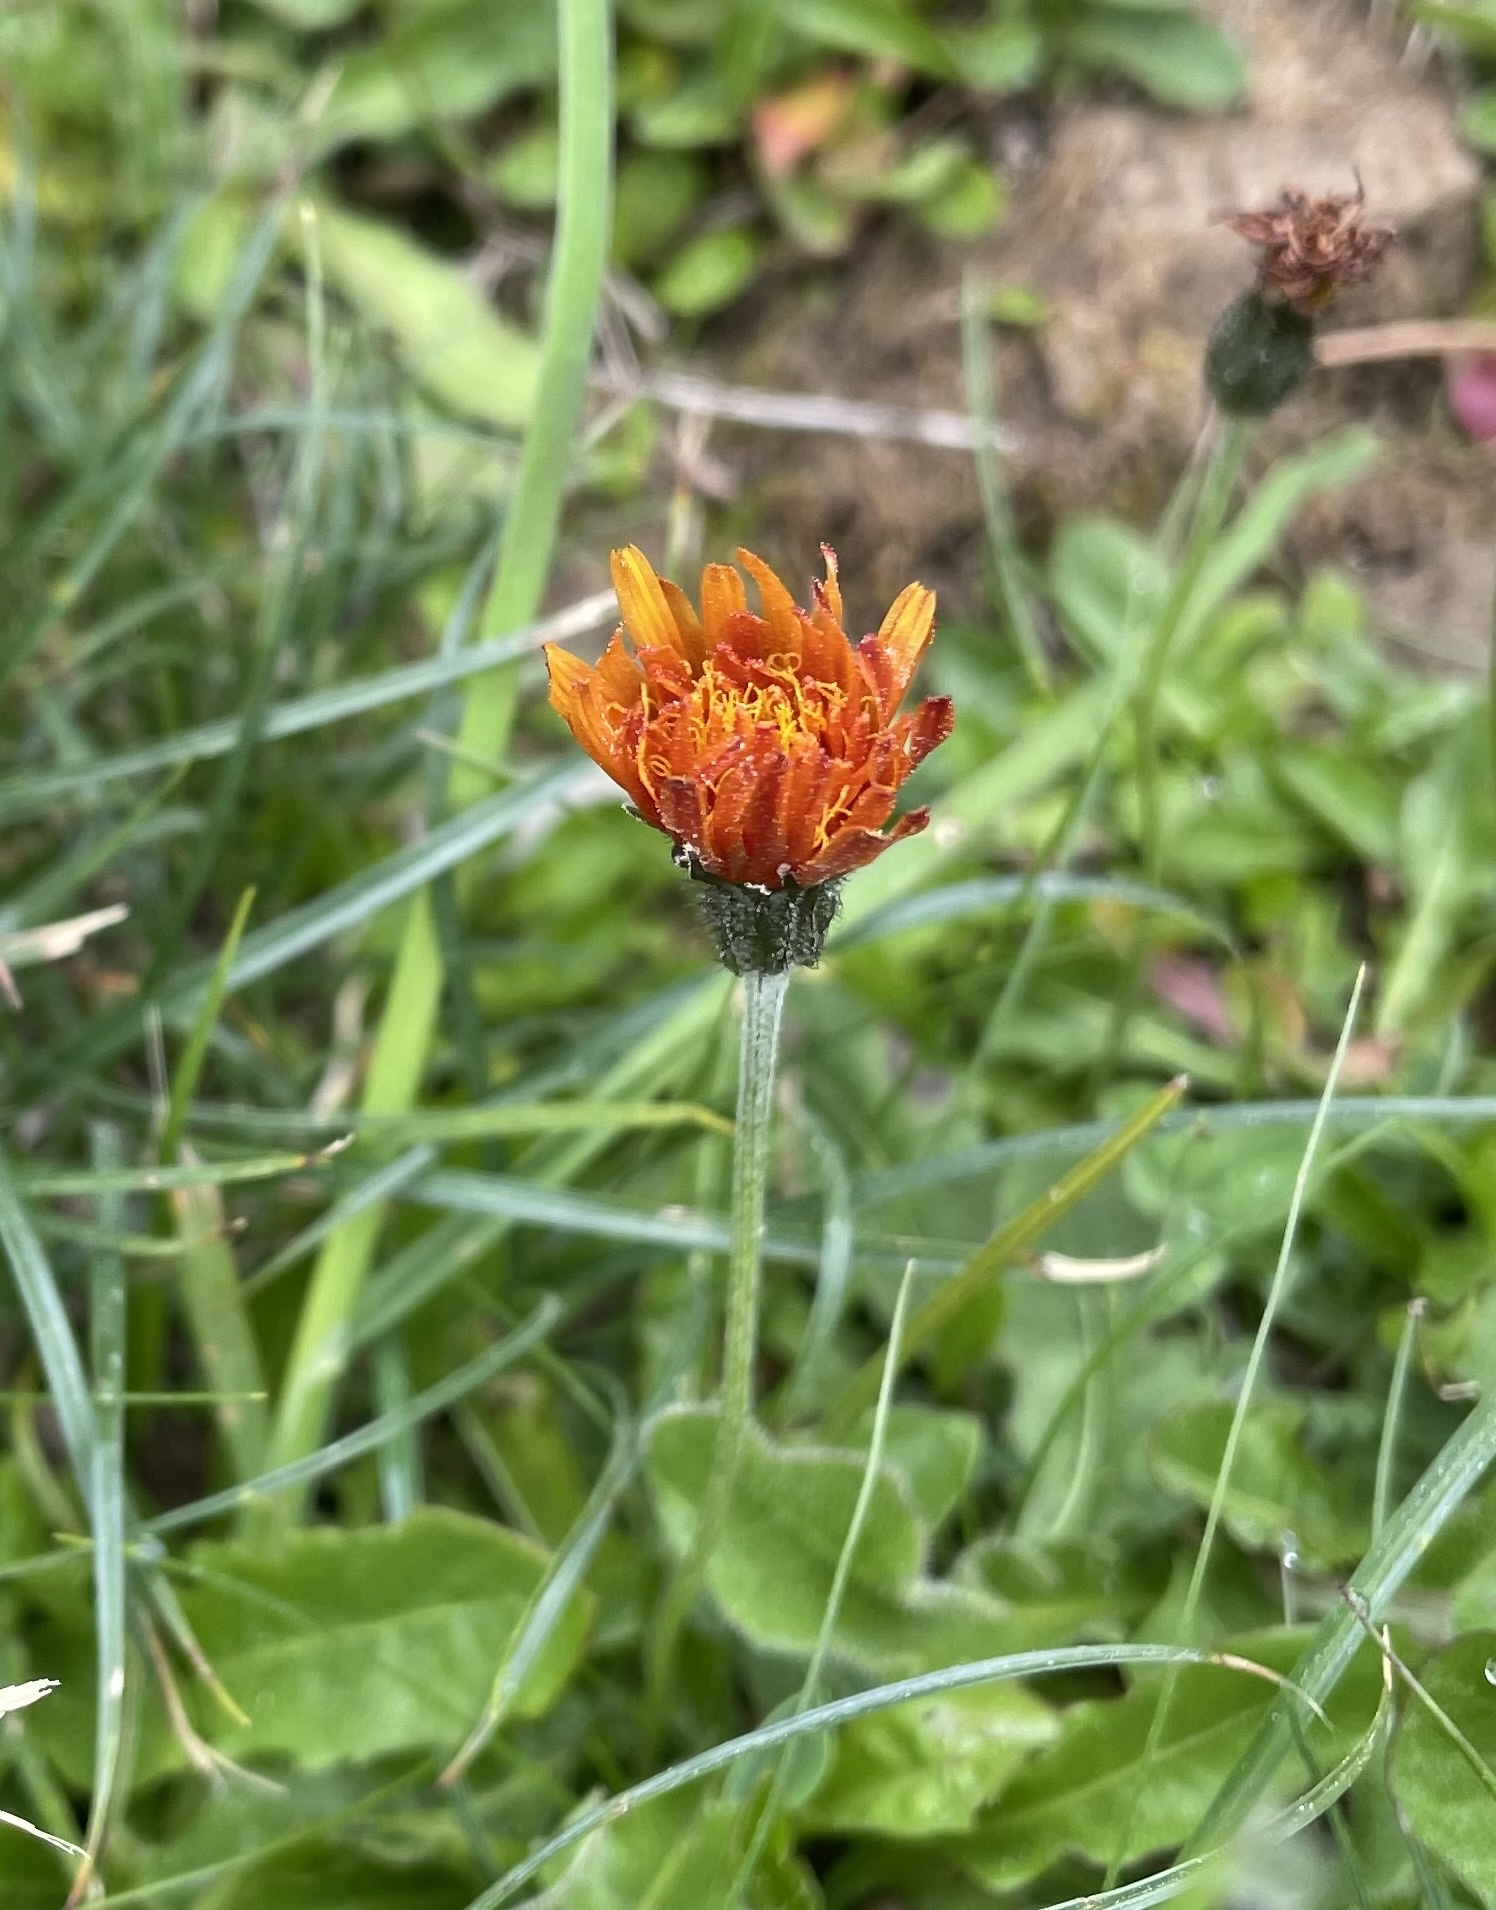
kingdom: Plantae
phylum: Tracheophyta
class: Magnoliopsida
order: Asterales
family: Asteraceae
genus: Crepis
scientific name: Crepis aurea
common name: Golden hawk's-beard
